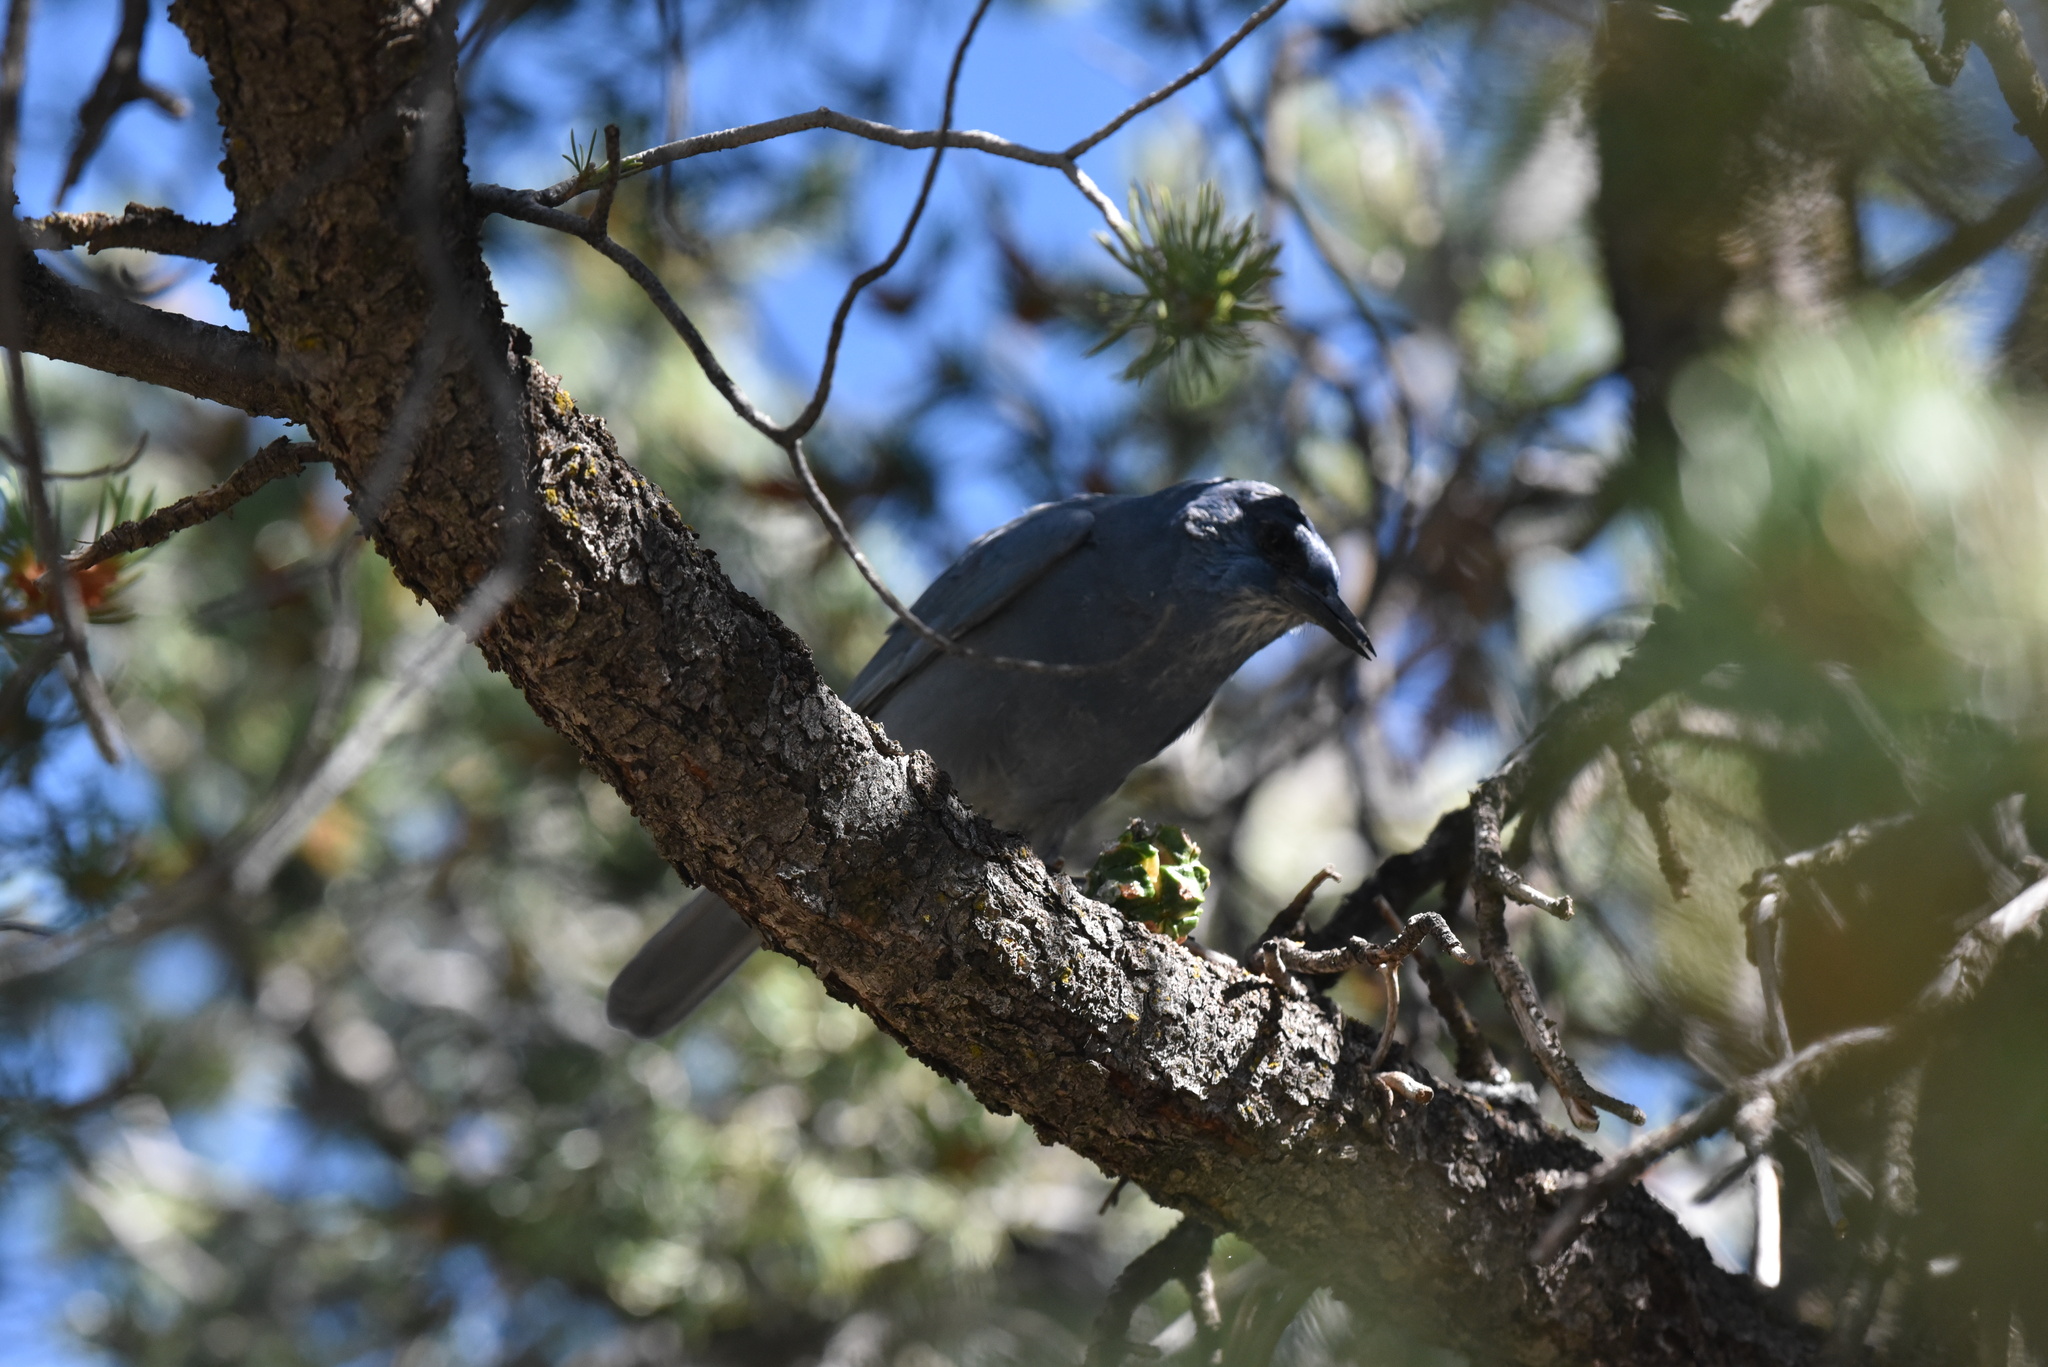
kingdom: Animalia
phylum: Chordata
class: Aves
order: Passeriformes
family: Corvidae
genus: Gymnorhinus
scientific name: Gymnorhinus cyanocephalus
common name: Pinyon jay
